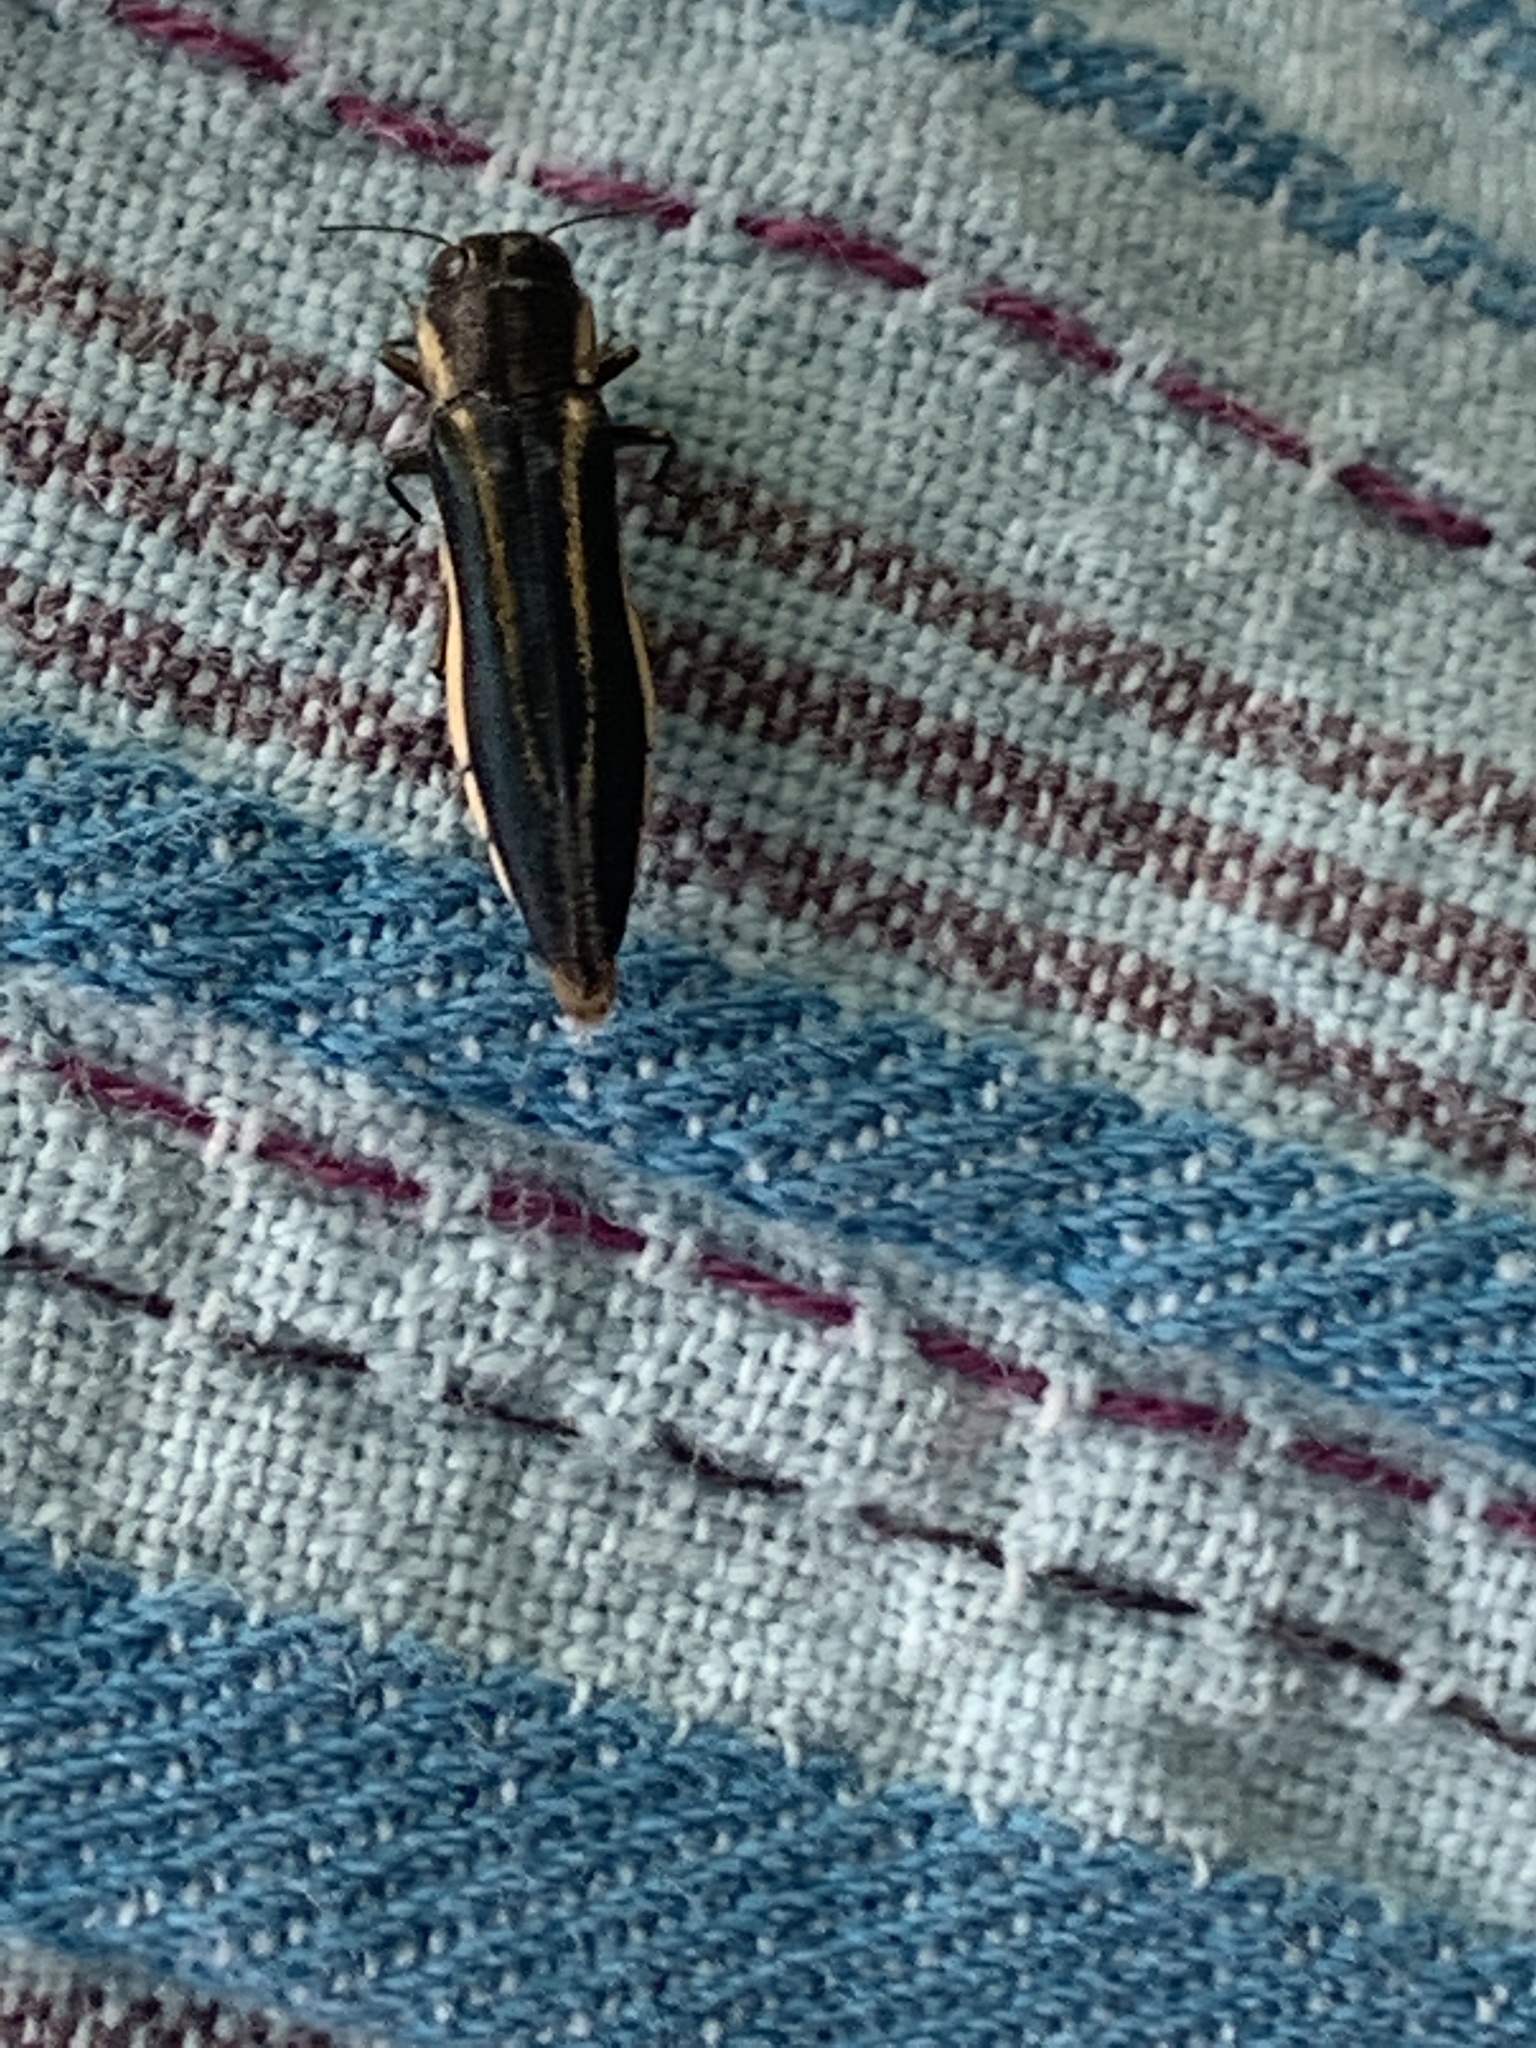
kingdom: Animalia
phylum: Arthropoda
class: Insecta
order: Coleoptera
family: Buprestidae
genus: Agrilus
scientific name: Agrilus bilineatus
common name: Two-lined chestnut borer
